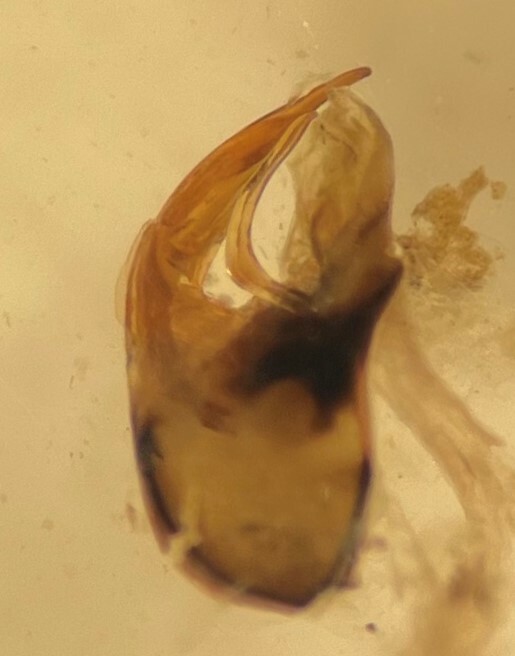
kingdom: Animalia
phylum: Arthropoda
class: Insecta
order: Hemiptera
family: Corixidae
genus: Hesperocorixa
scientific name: Hesperocorixa laevigata
